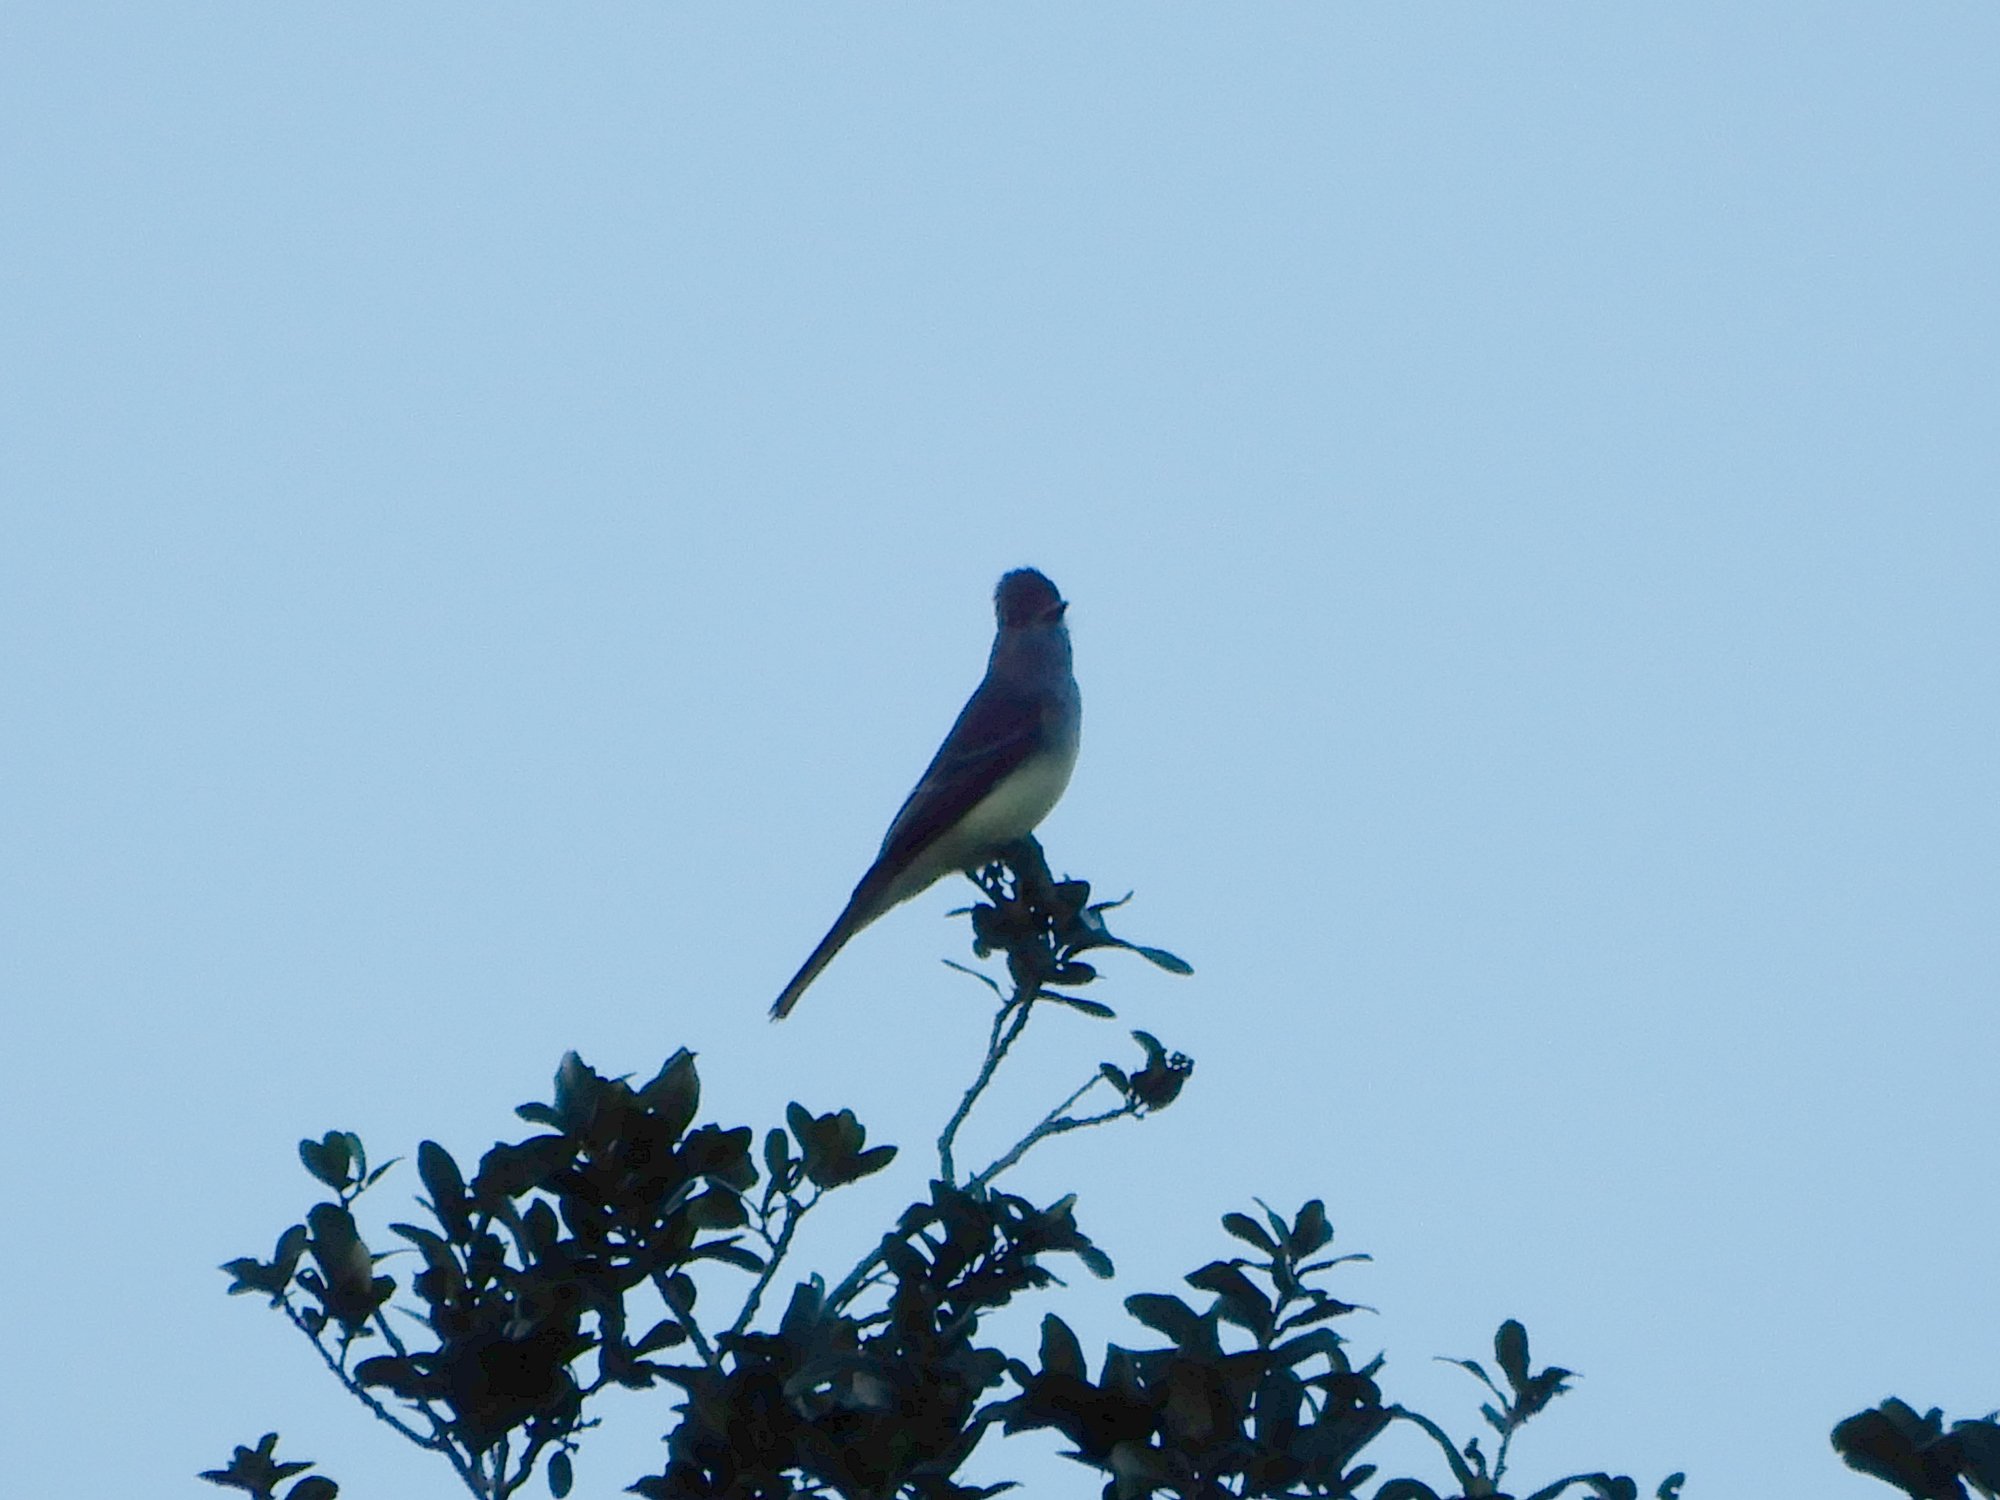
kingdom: Animalia
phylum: Chordata
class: Aves
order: Passeriformes
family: Tyrannidae
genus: Myiarchus
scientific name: Myiarchus crinitus
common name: Great crested flycatcher
